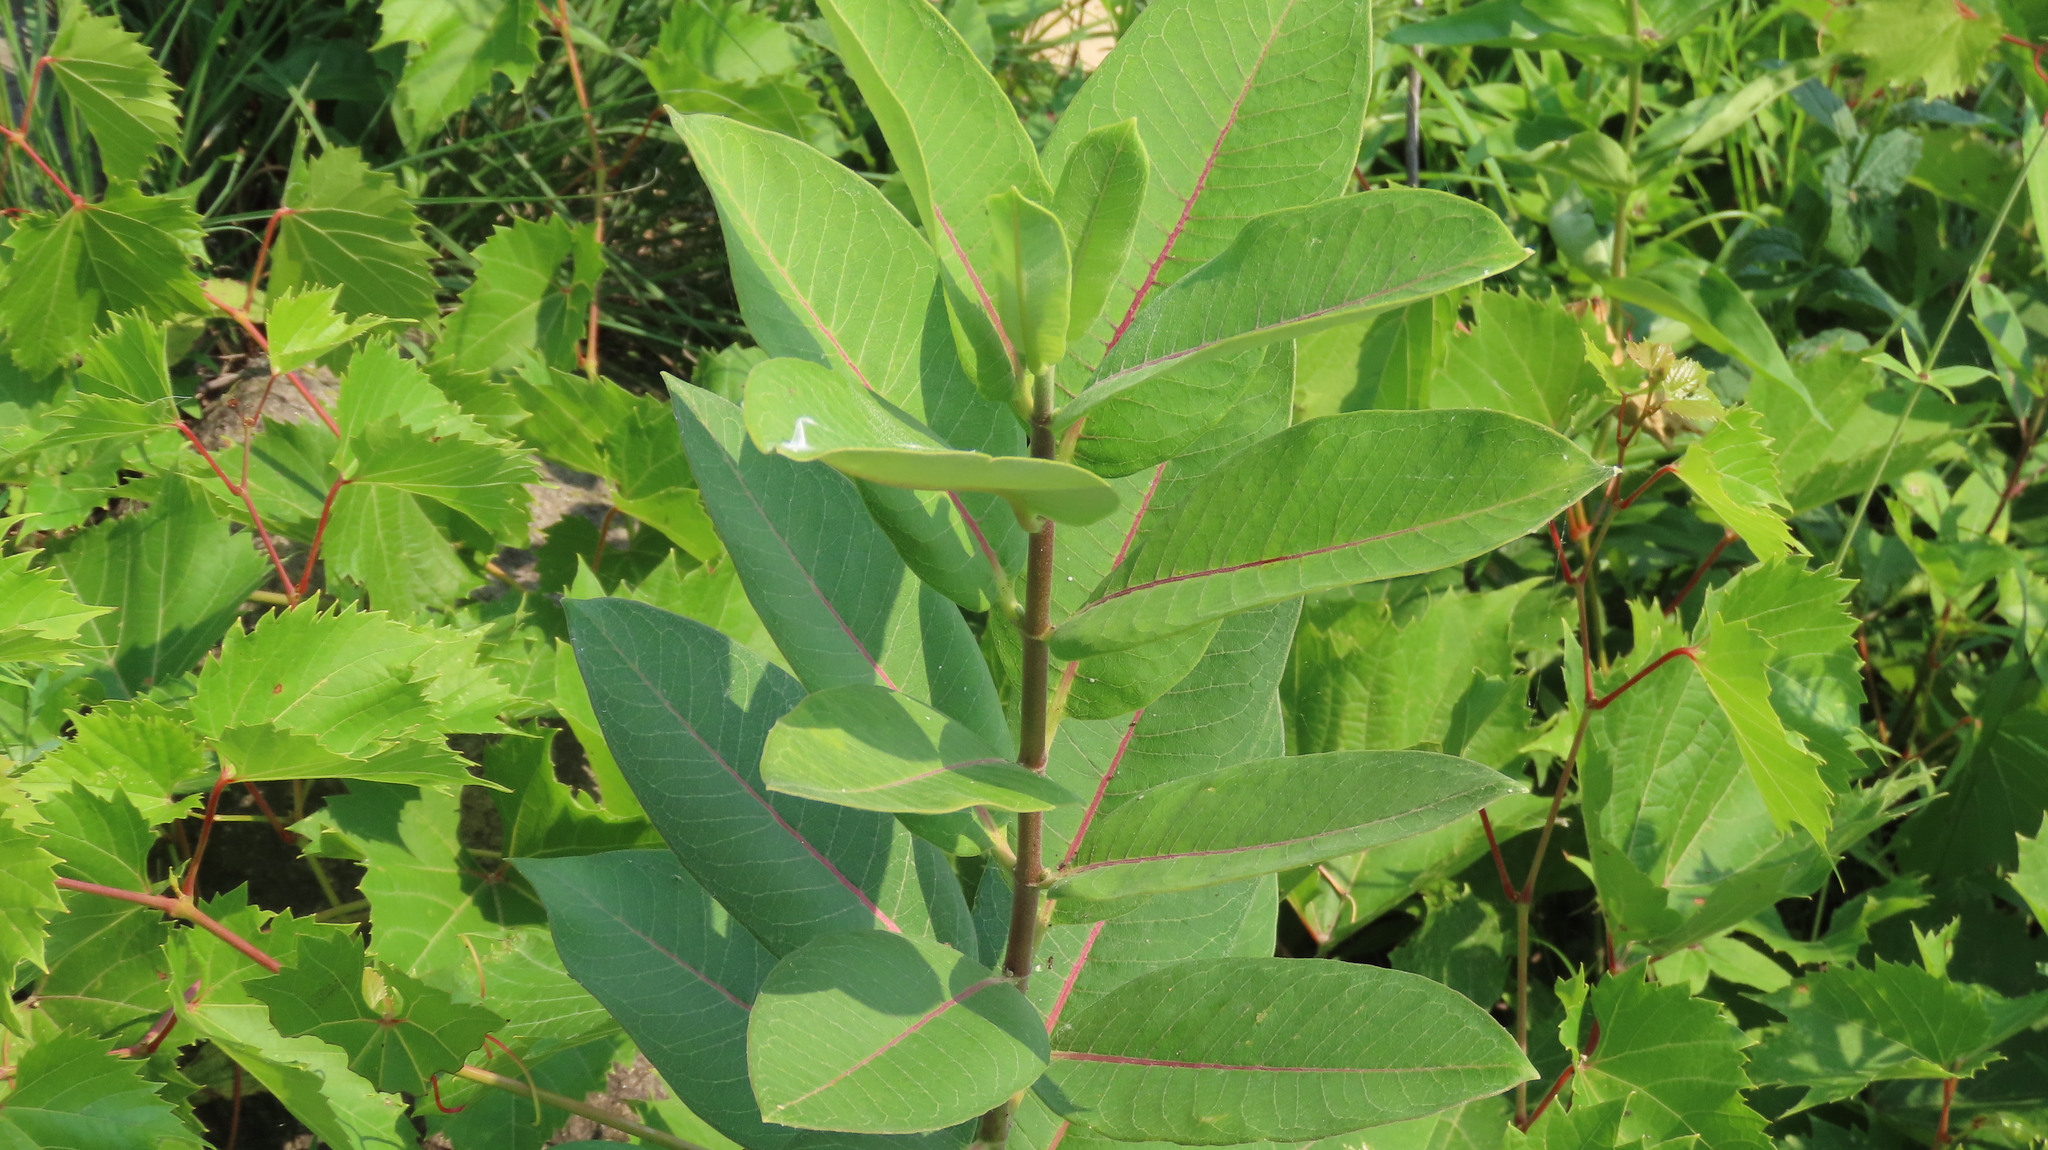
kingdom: Plantae
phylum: Tracheophyta
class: Magnoliopsida
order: Gentianales
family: Apocynaceae
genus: Asclepias
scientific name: Asclepias syriaca
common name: Common milkweed
